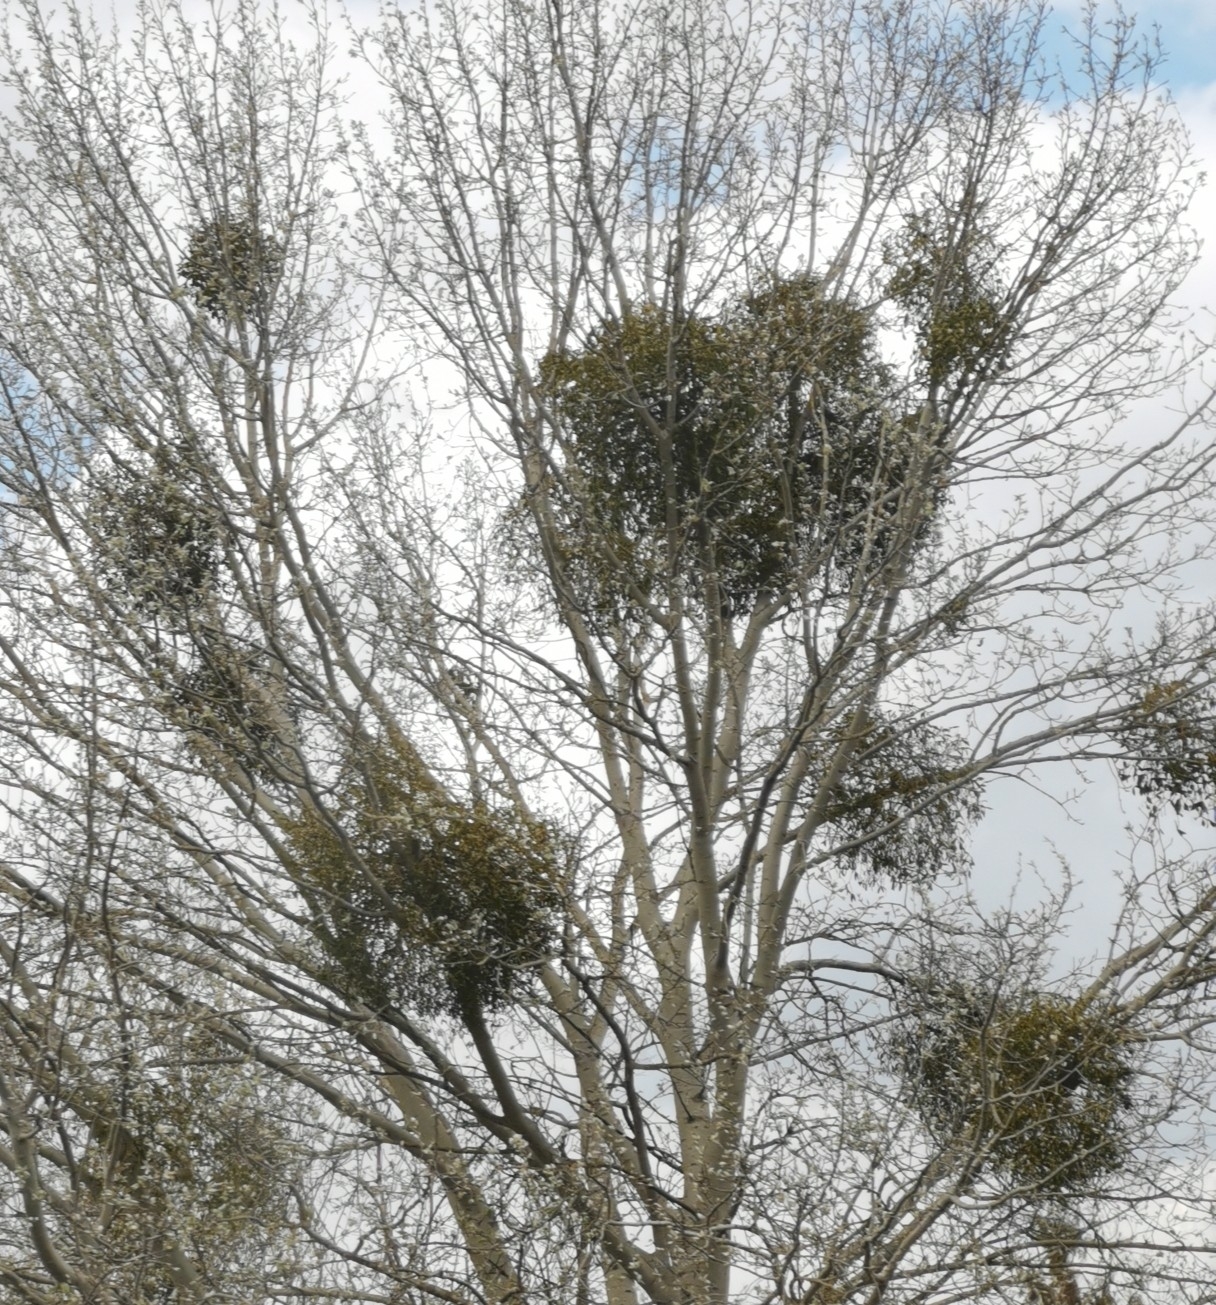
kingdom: Plantae
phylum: Tracheophyta
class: Magnoliopsida
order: Santalales
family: Viscaceae
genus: Viscum
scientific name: Viscum album
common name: Mistletoe
